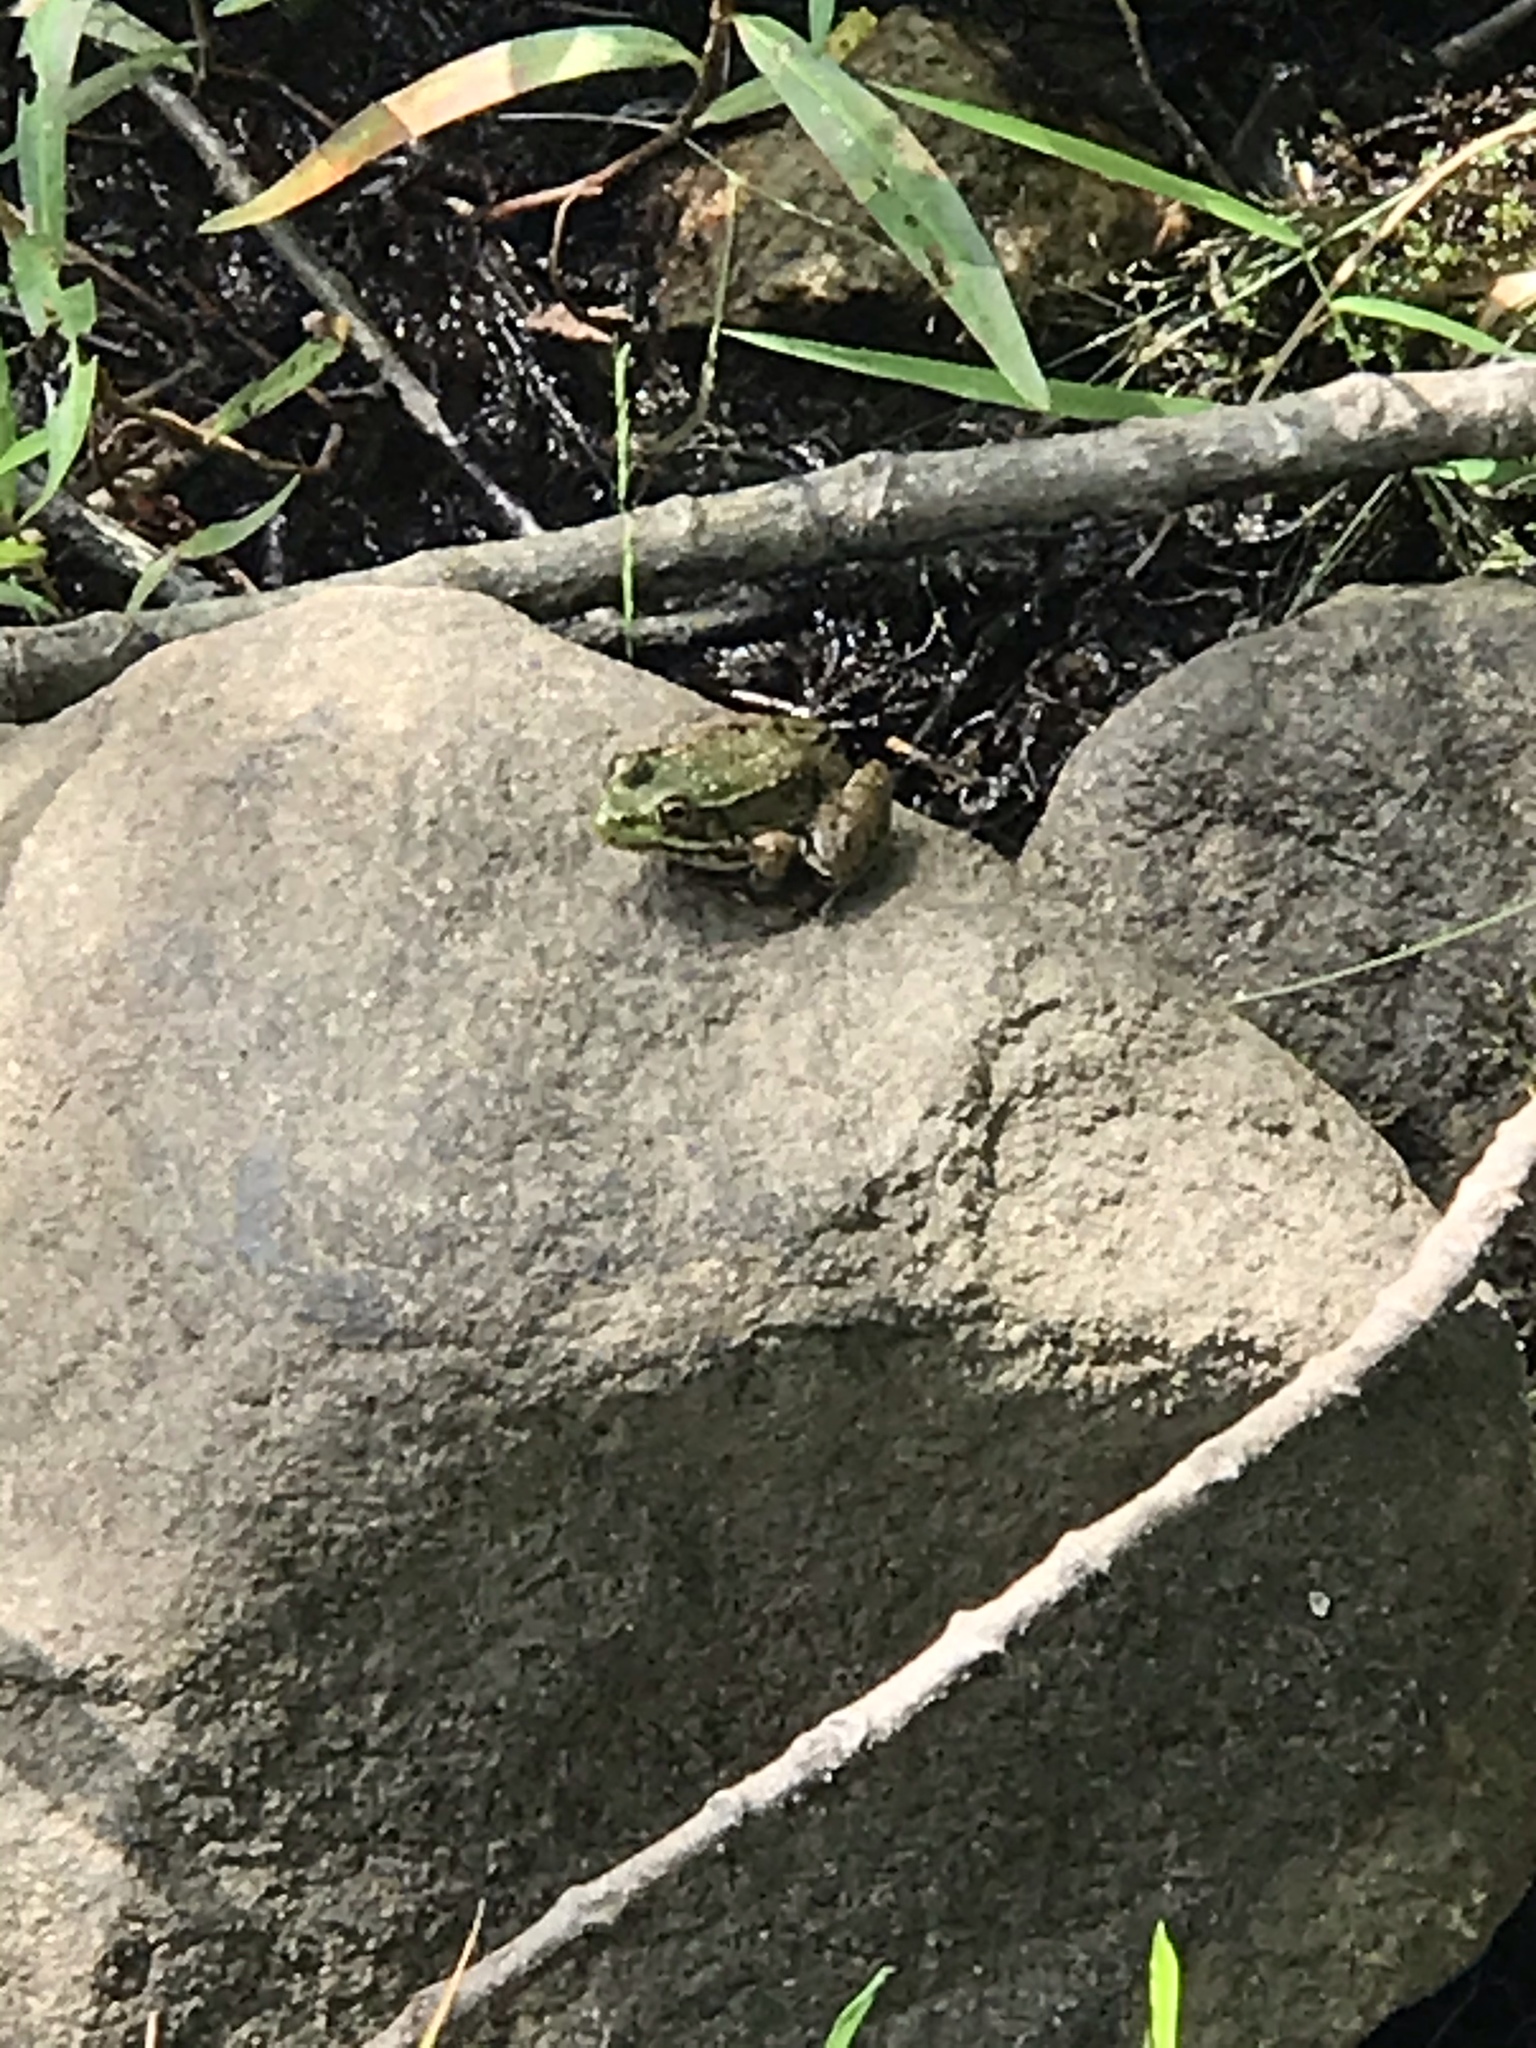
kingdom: Animalia
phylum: Chordata
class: Amphibia
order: Anura
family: Ranidae
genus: Lithobates
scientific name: Lithobates clamitans
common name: Green frog
